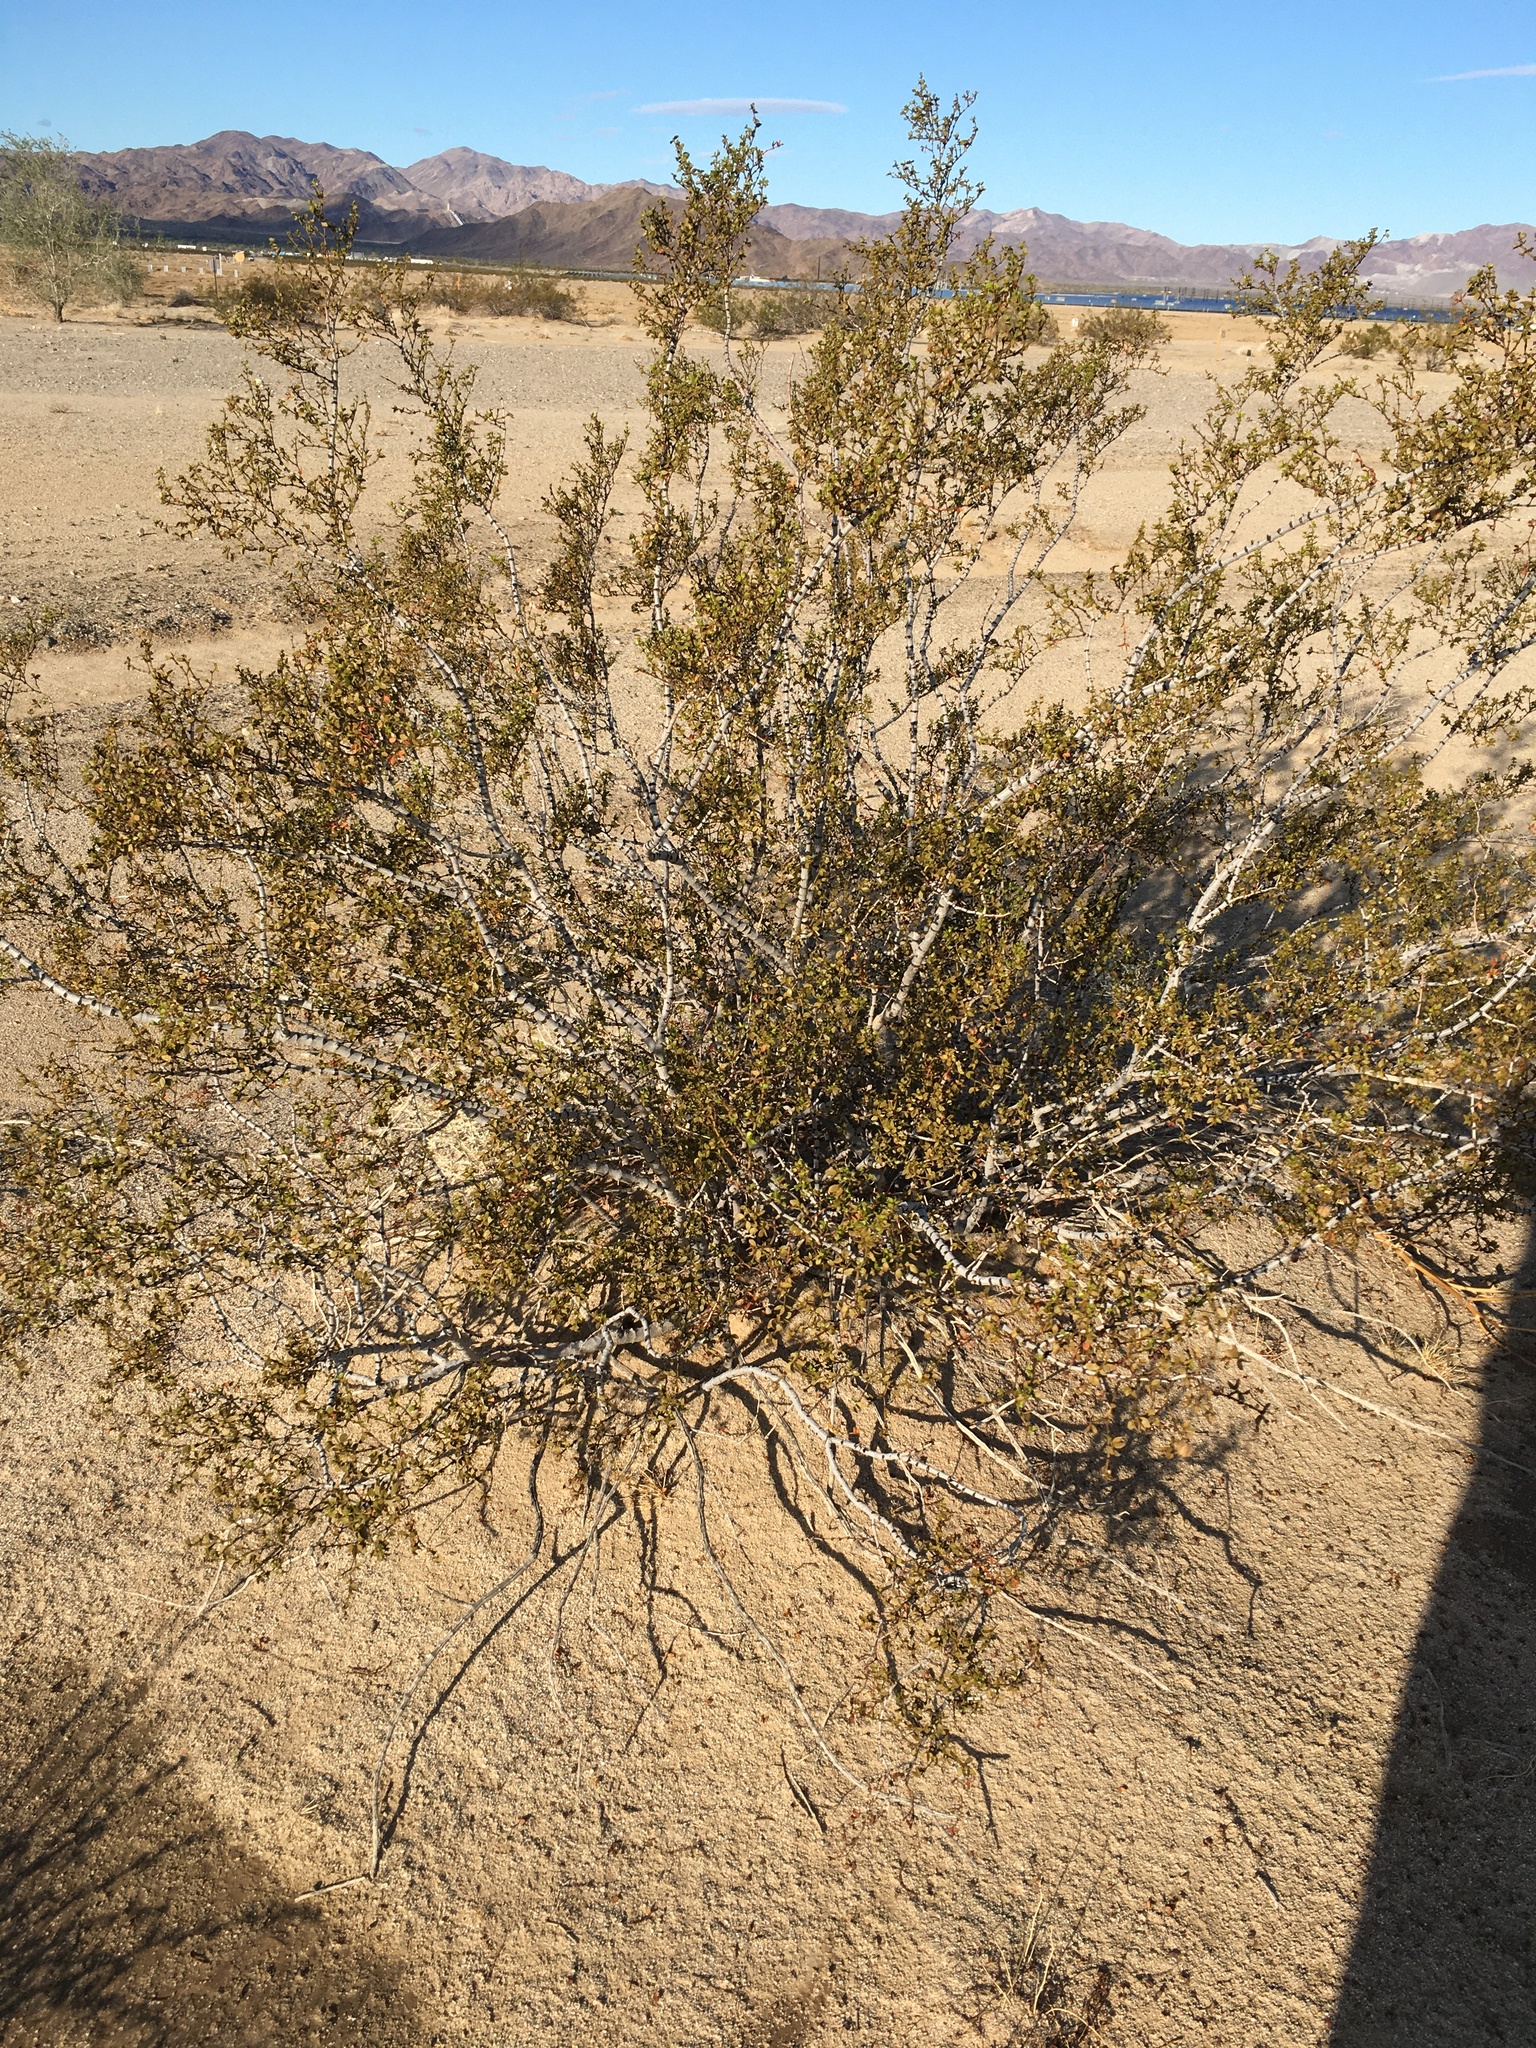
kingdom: Plantae
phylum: Tracheophyta
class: Magnoliopsida
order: Zygophyllales
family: Zygophyllaceae
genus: Larrea
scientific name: Larrea tridentata
